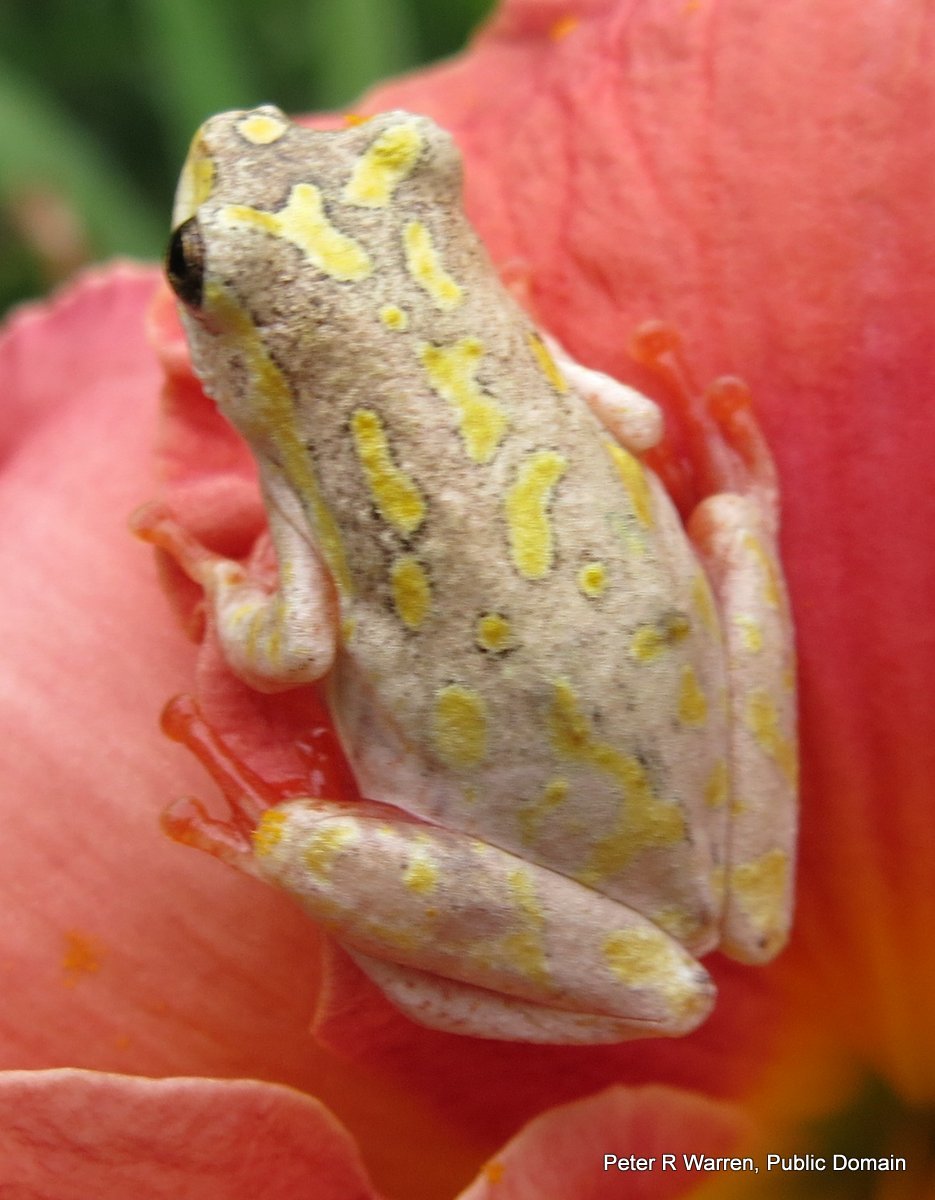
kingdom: Animalia
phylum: Chordata
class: Amphibia
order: Anura
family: Hyperoliidae
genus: Hyperolius
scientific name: Hyperolius marmoratus
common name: Painted reed frog
